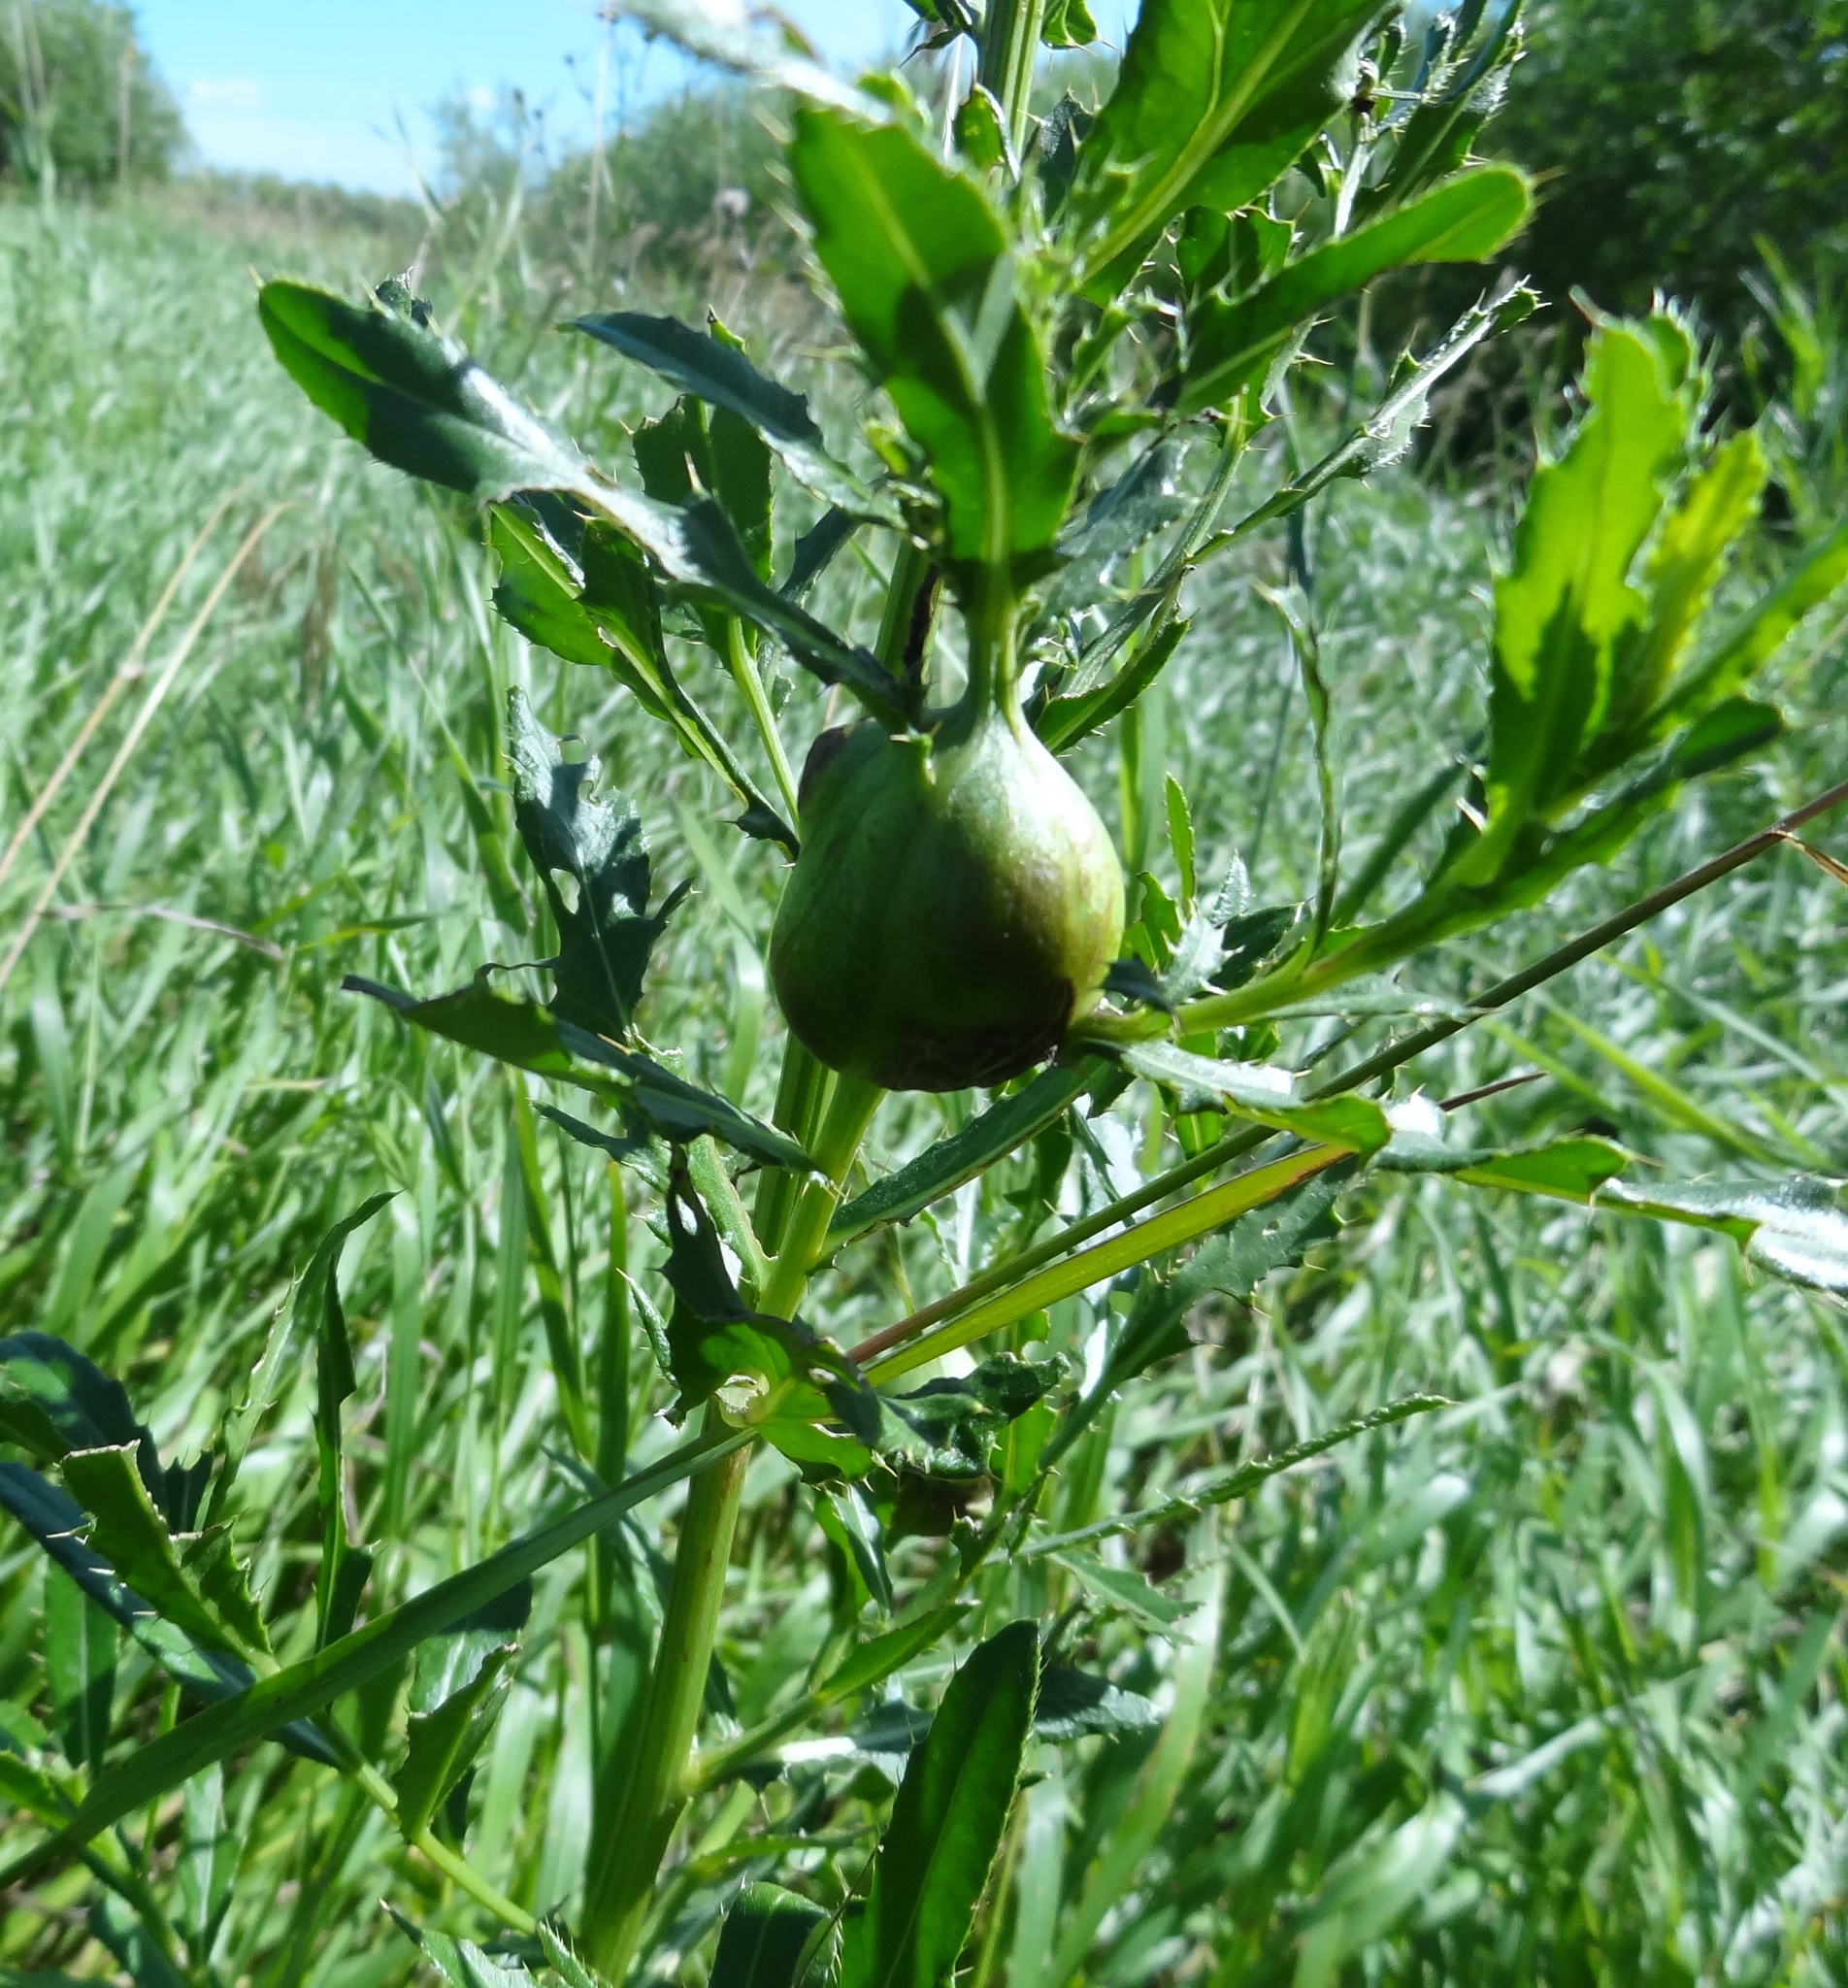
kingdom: Animalia
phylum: Arthropoda
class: Insecta
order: Diptera
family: Tephritidae
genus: Urophora
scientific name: Urophora cardui
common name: Fruit fly
